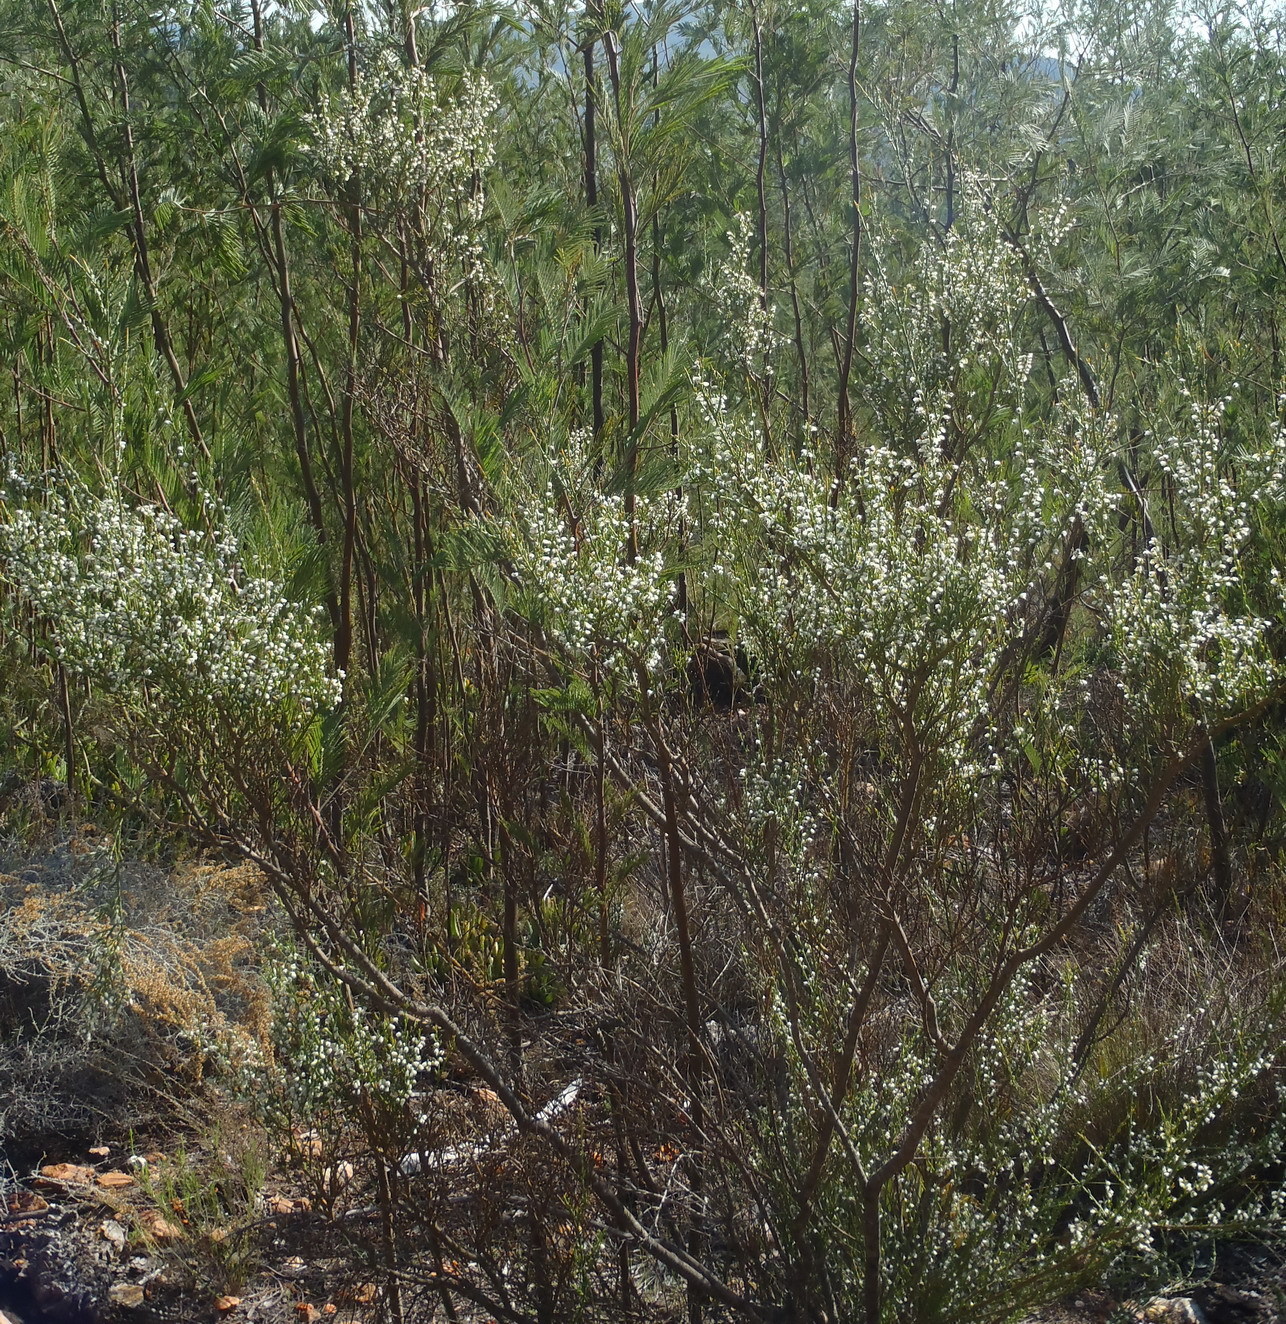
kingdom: Plantae
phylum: Tracheophyta
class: Magnoliopsida
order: Fabales
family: Polygalaceae
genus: Muraltia
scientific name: Muraltia spinosa
